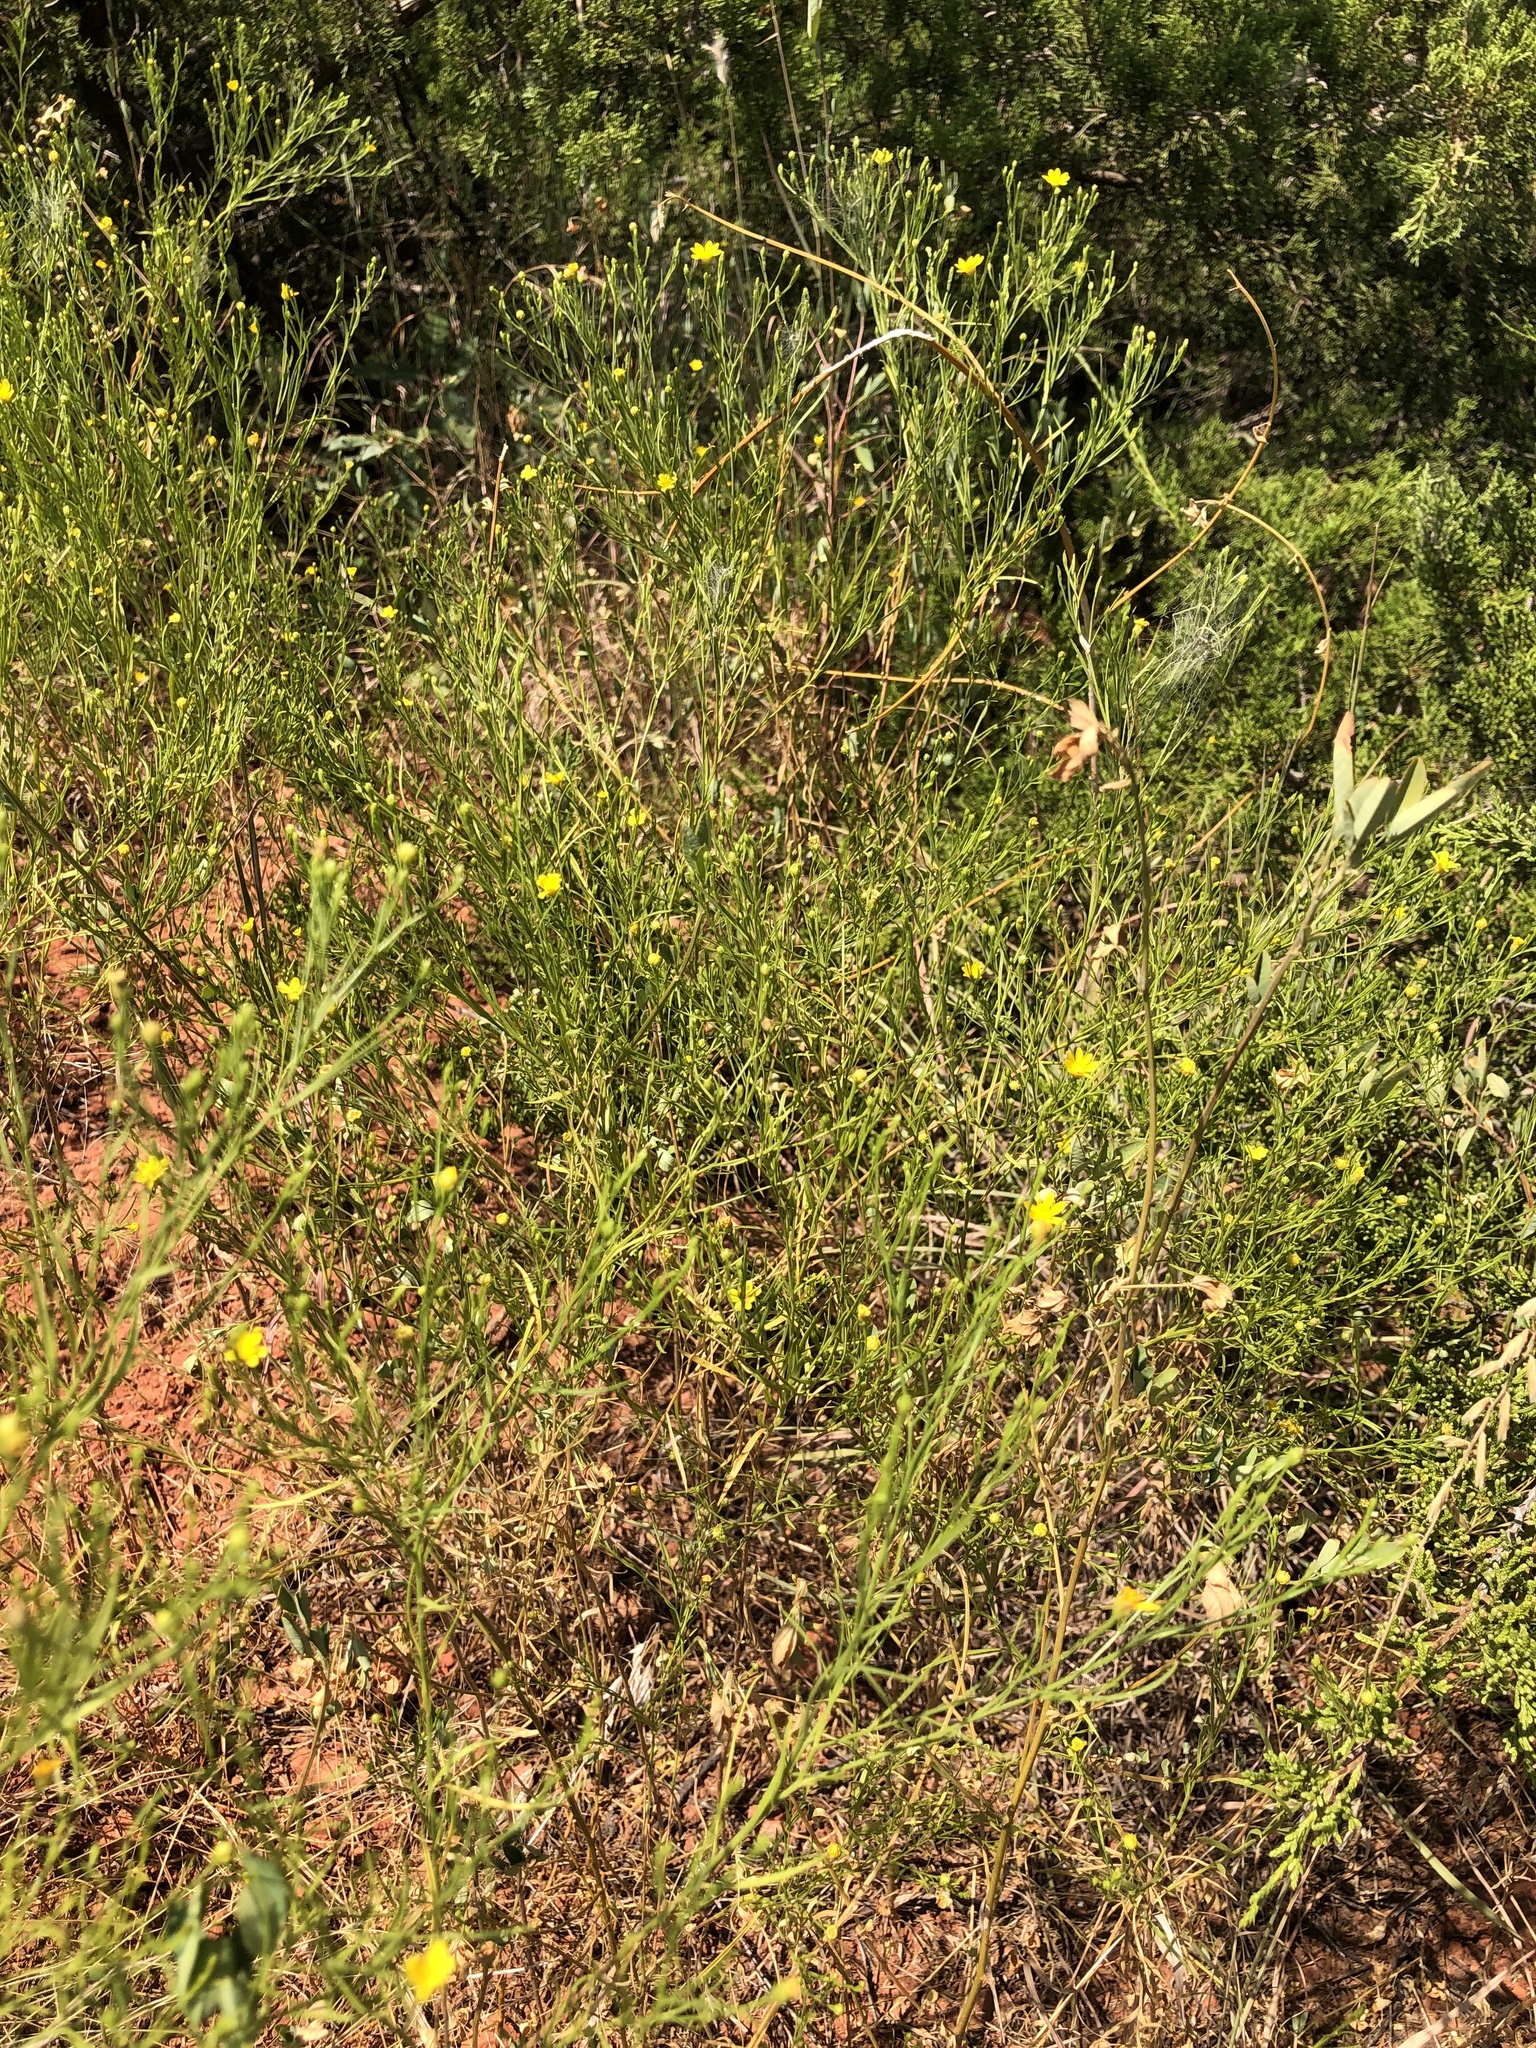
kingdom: Plantae
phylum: Tracheophyta
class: Magnoliopsida
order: Asterales
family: Asteraceae
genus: Amphiachyris
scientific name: Amphiachyris dracunculoides
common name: Broomweed
